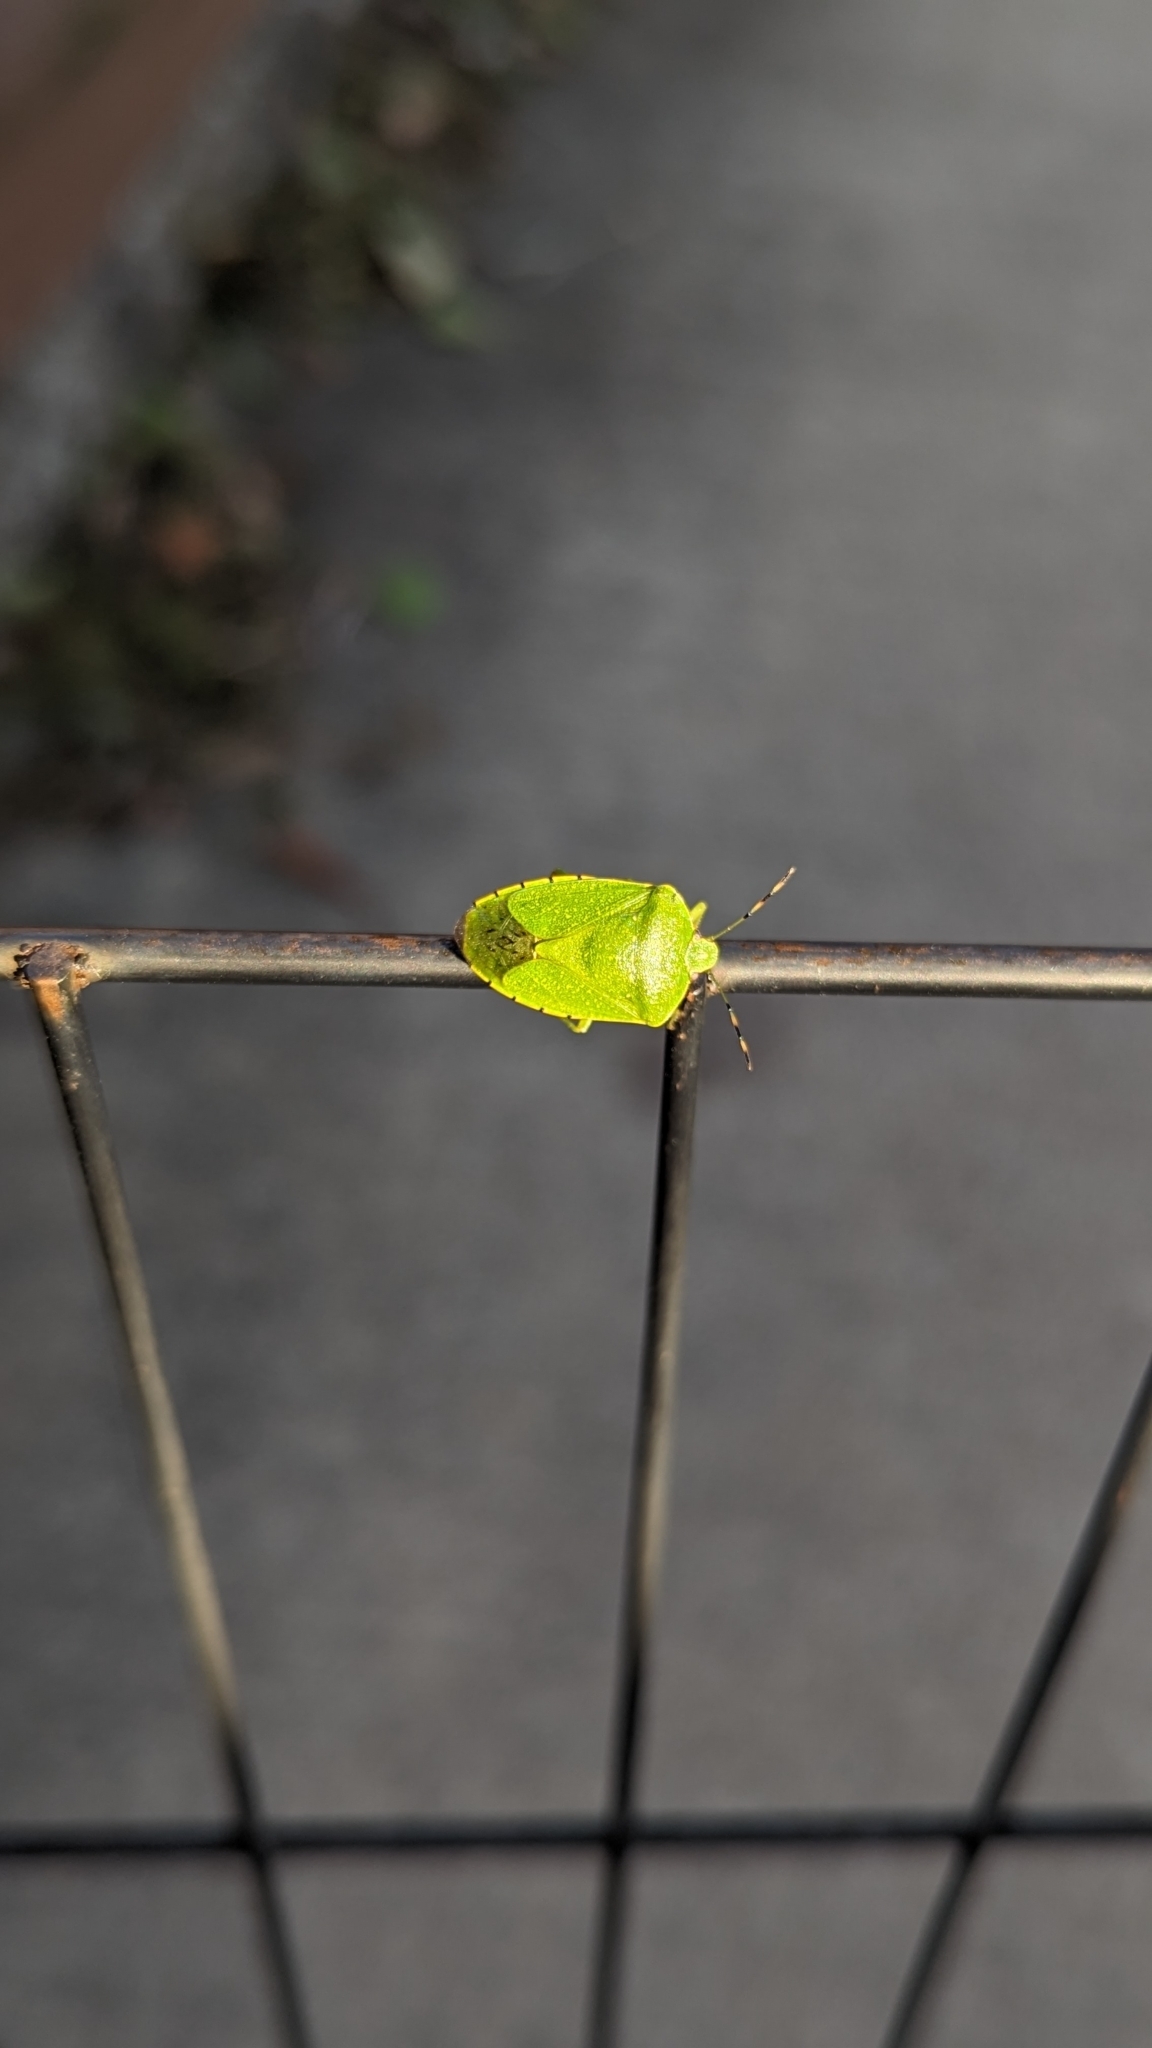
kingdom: Animalia
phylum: Arthropoda
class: Insecta
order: Hemiptera
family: Pentatomidae
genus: Chinavia
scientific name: Chinavia hilaris
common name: Green stink bug
